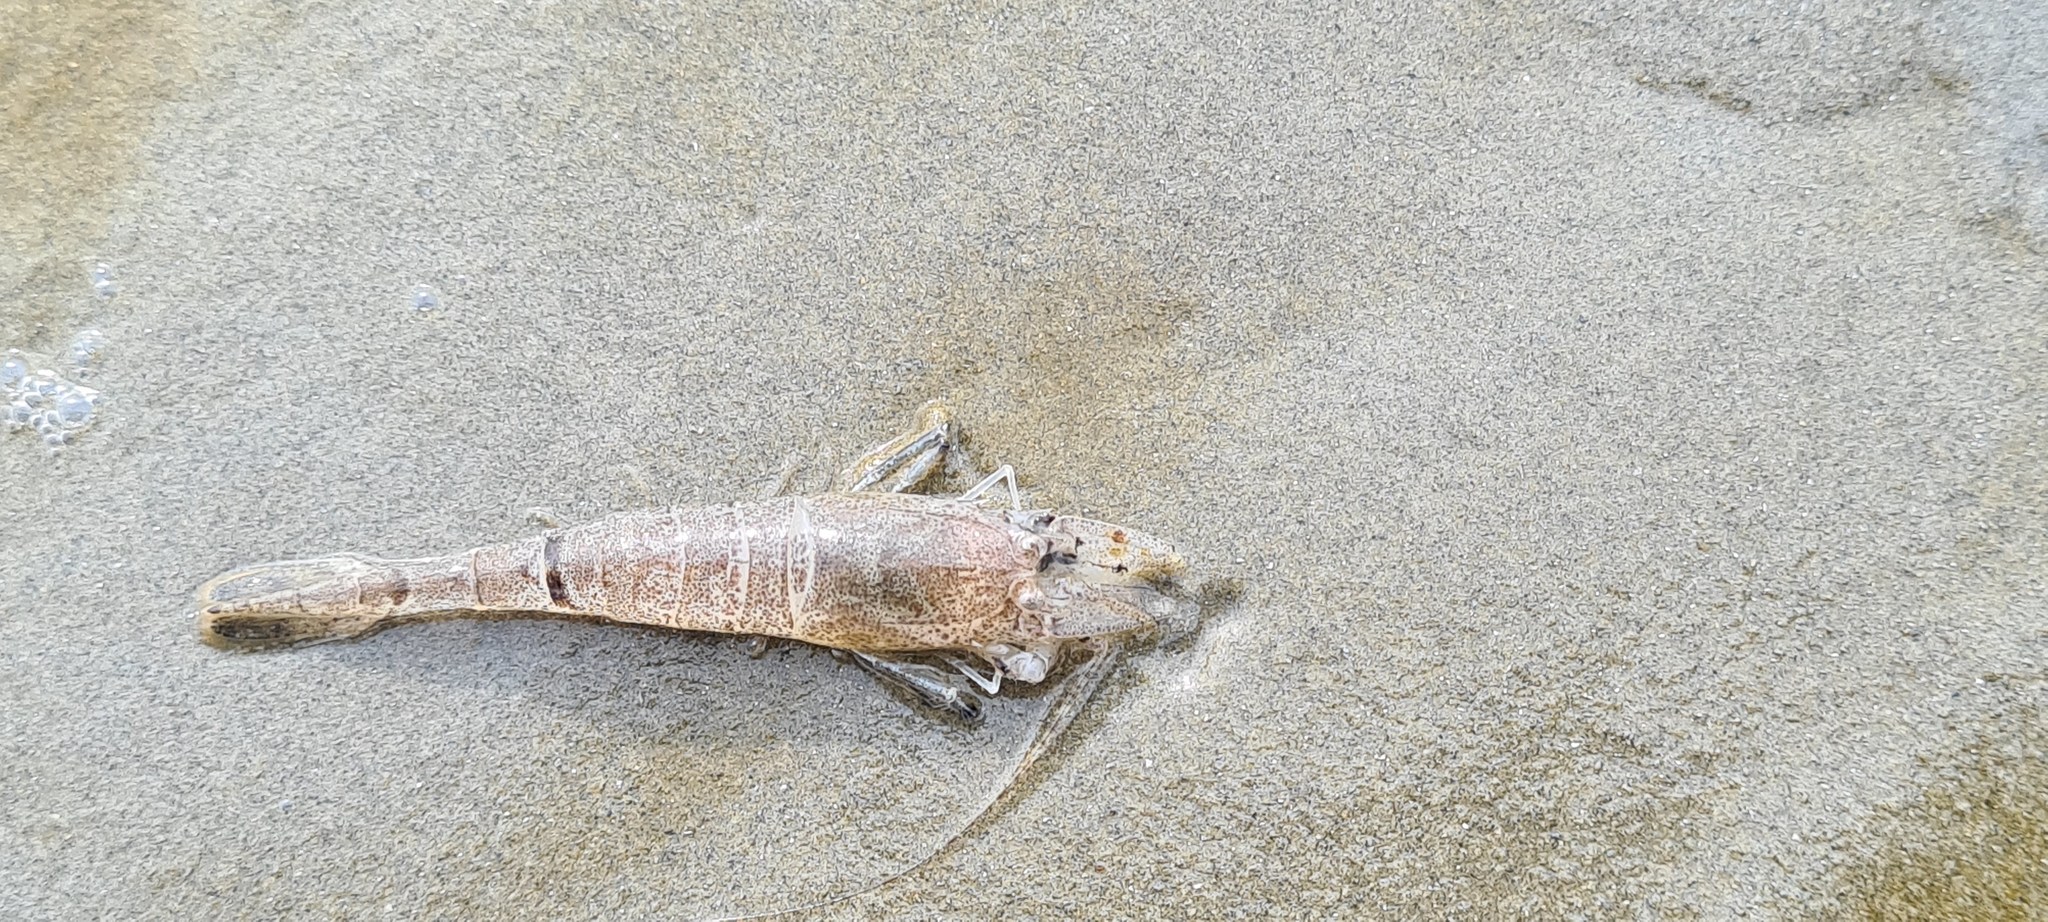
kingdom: Animalia
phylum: Arthropoda
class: Malacostraca
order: Decapoda
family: Crangonidae
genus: Crangon
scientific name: Crangon crangon
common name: Brown shrimp
